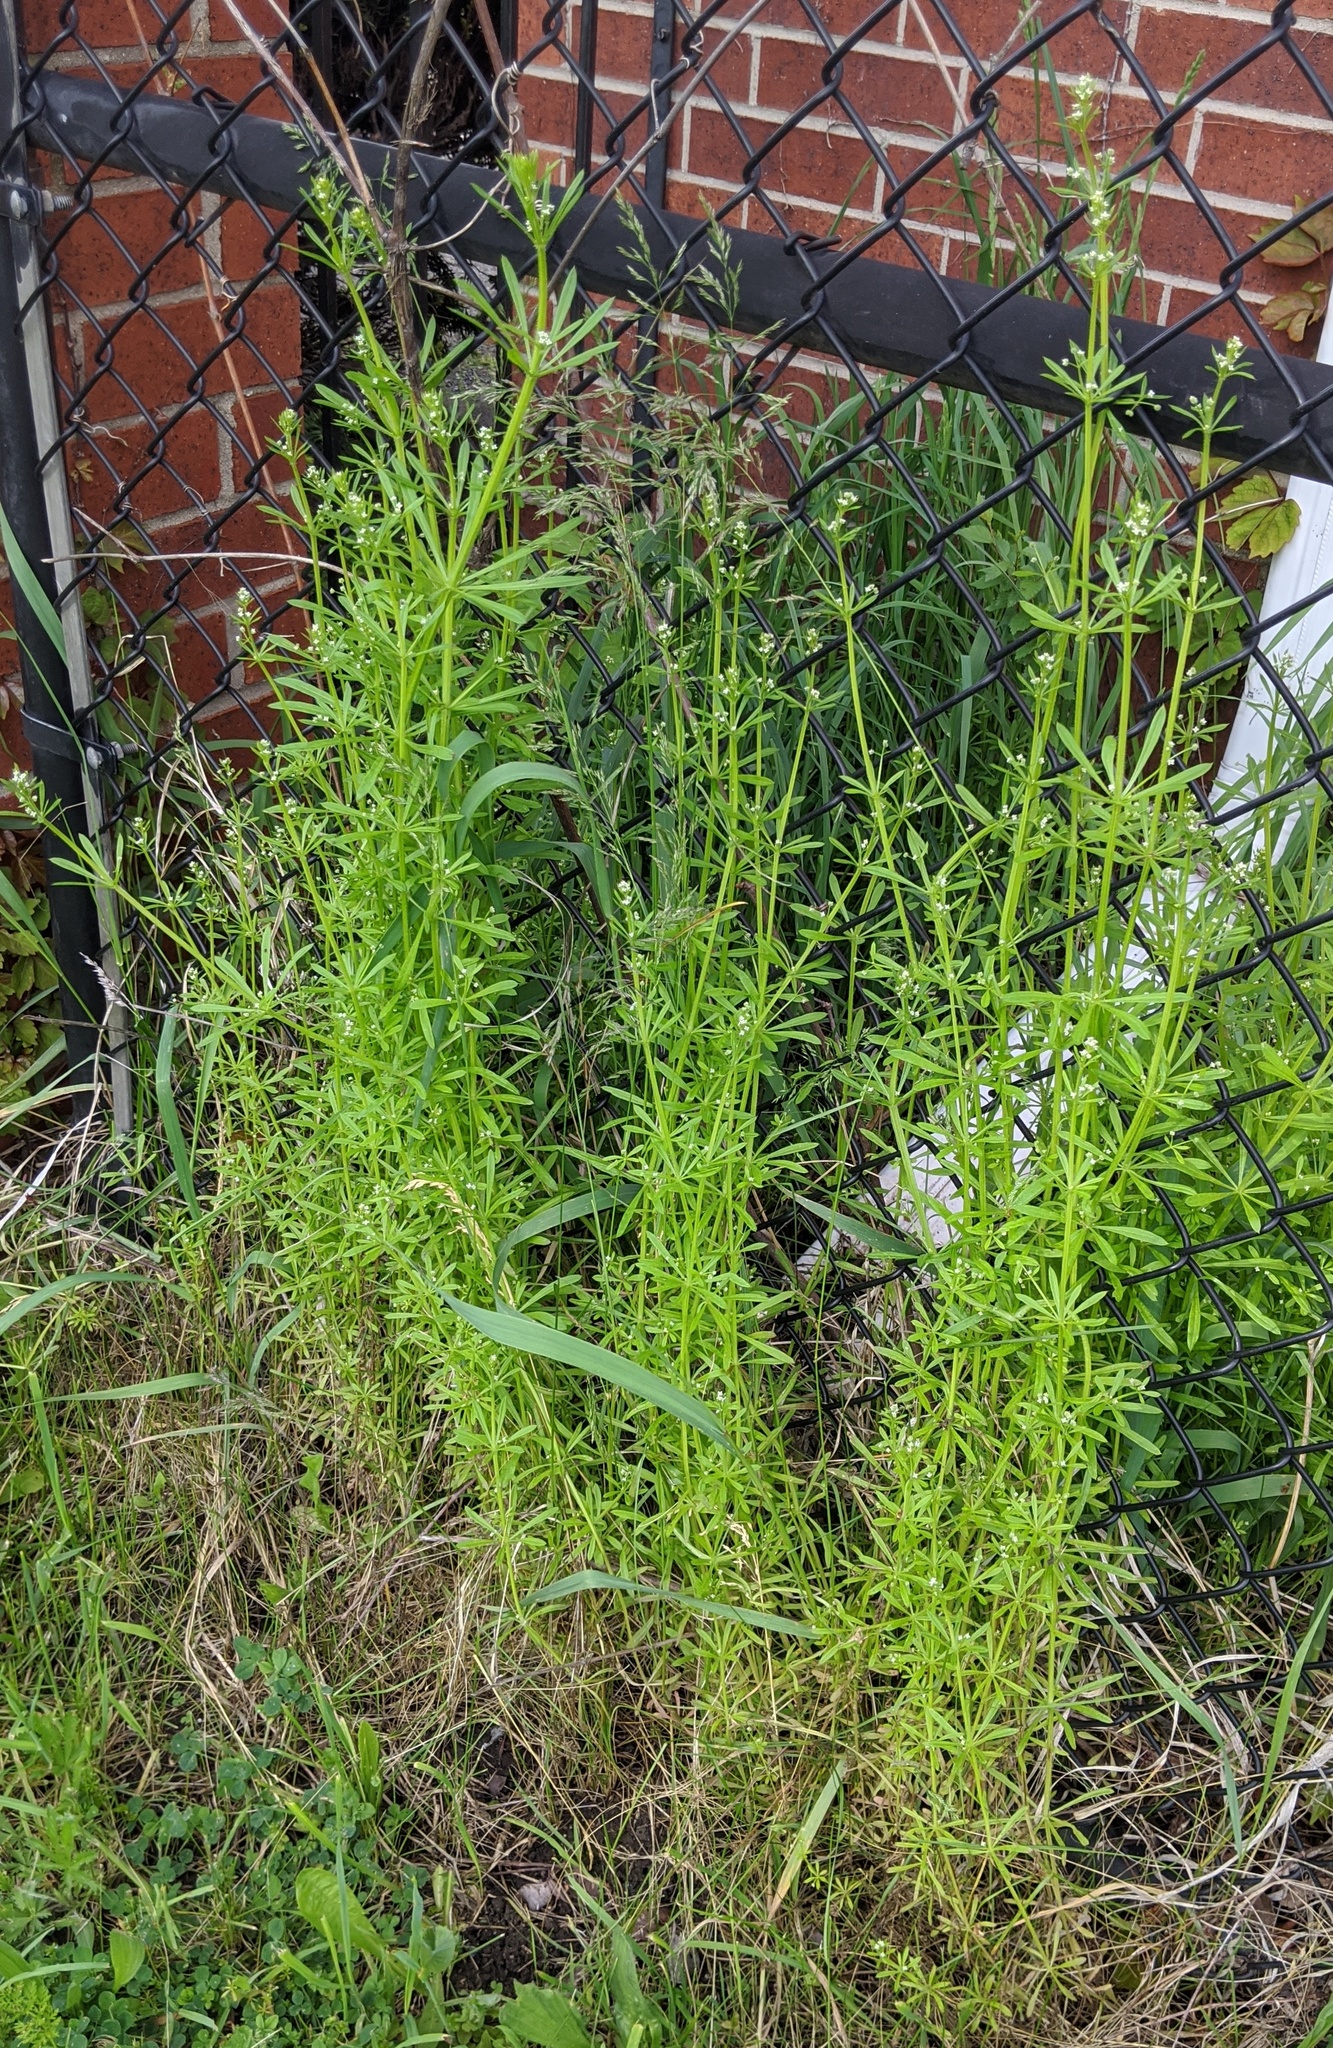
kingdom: Plantae
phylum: Tracheophyta
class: Magnoliopsida
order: Gentianales
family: Rubiaceae
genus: Galium
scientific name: Galium aparine
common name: Cleavers
